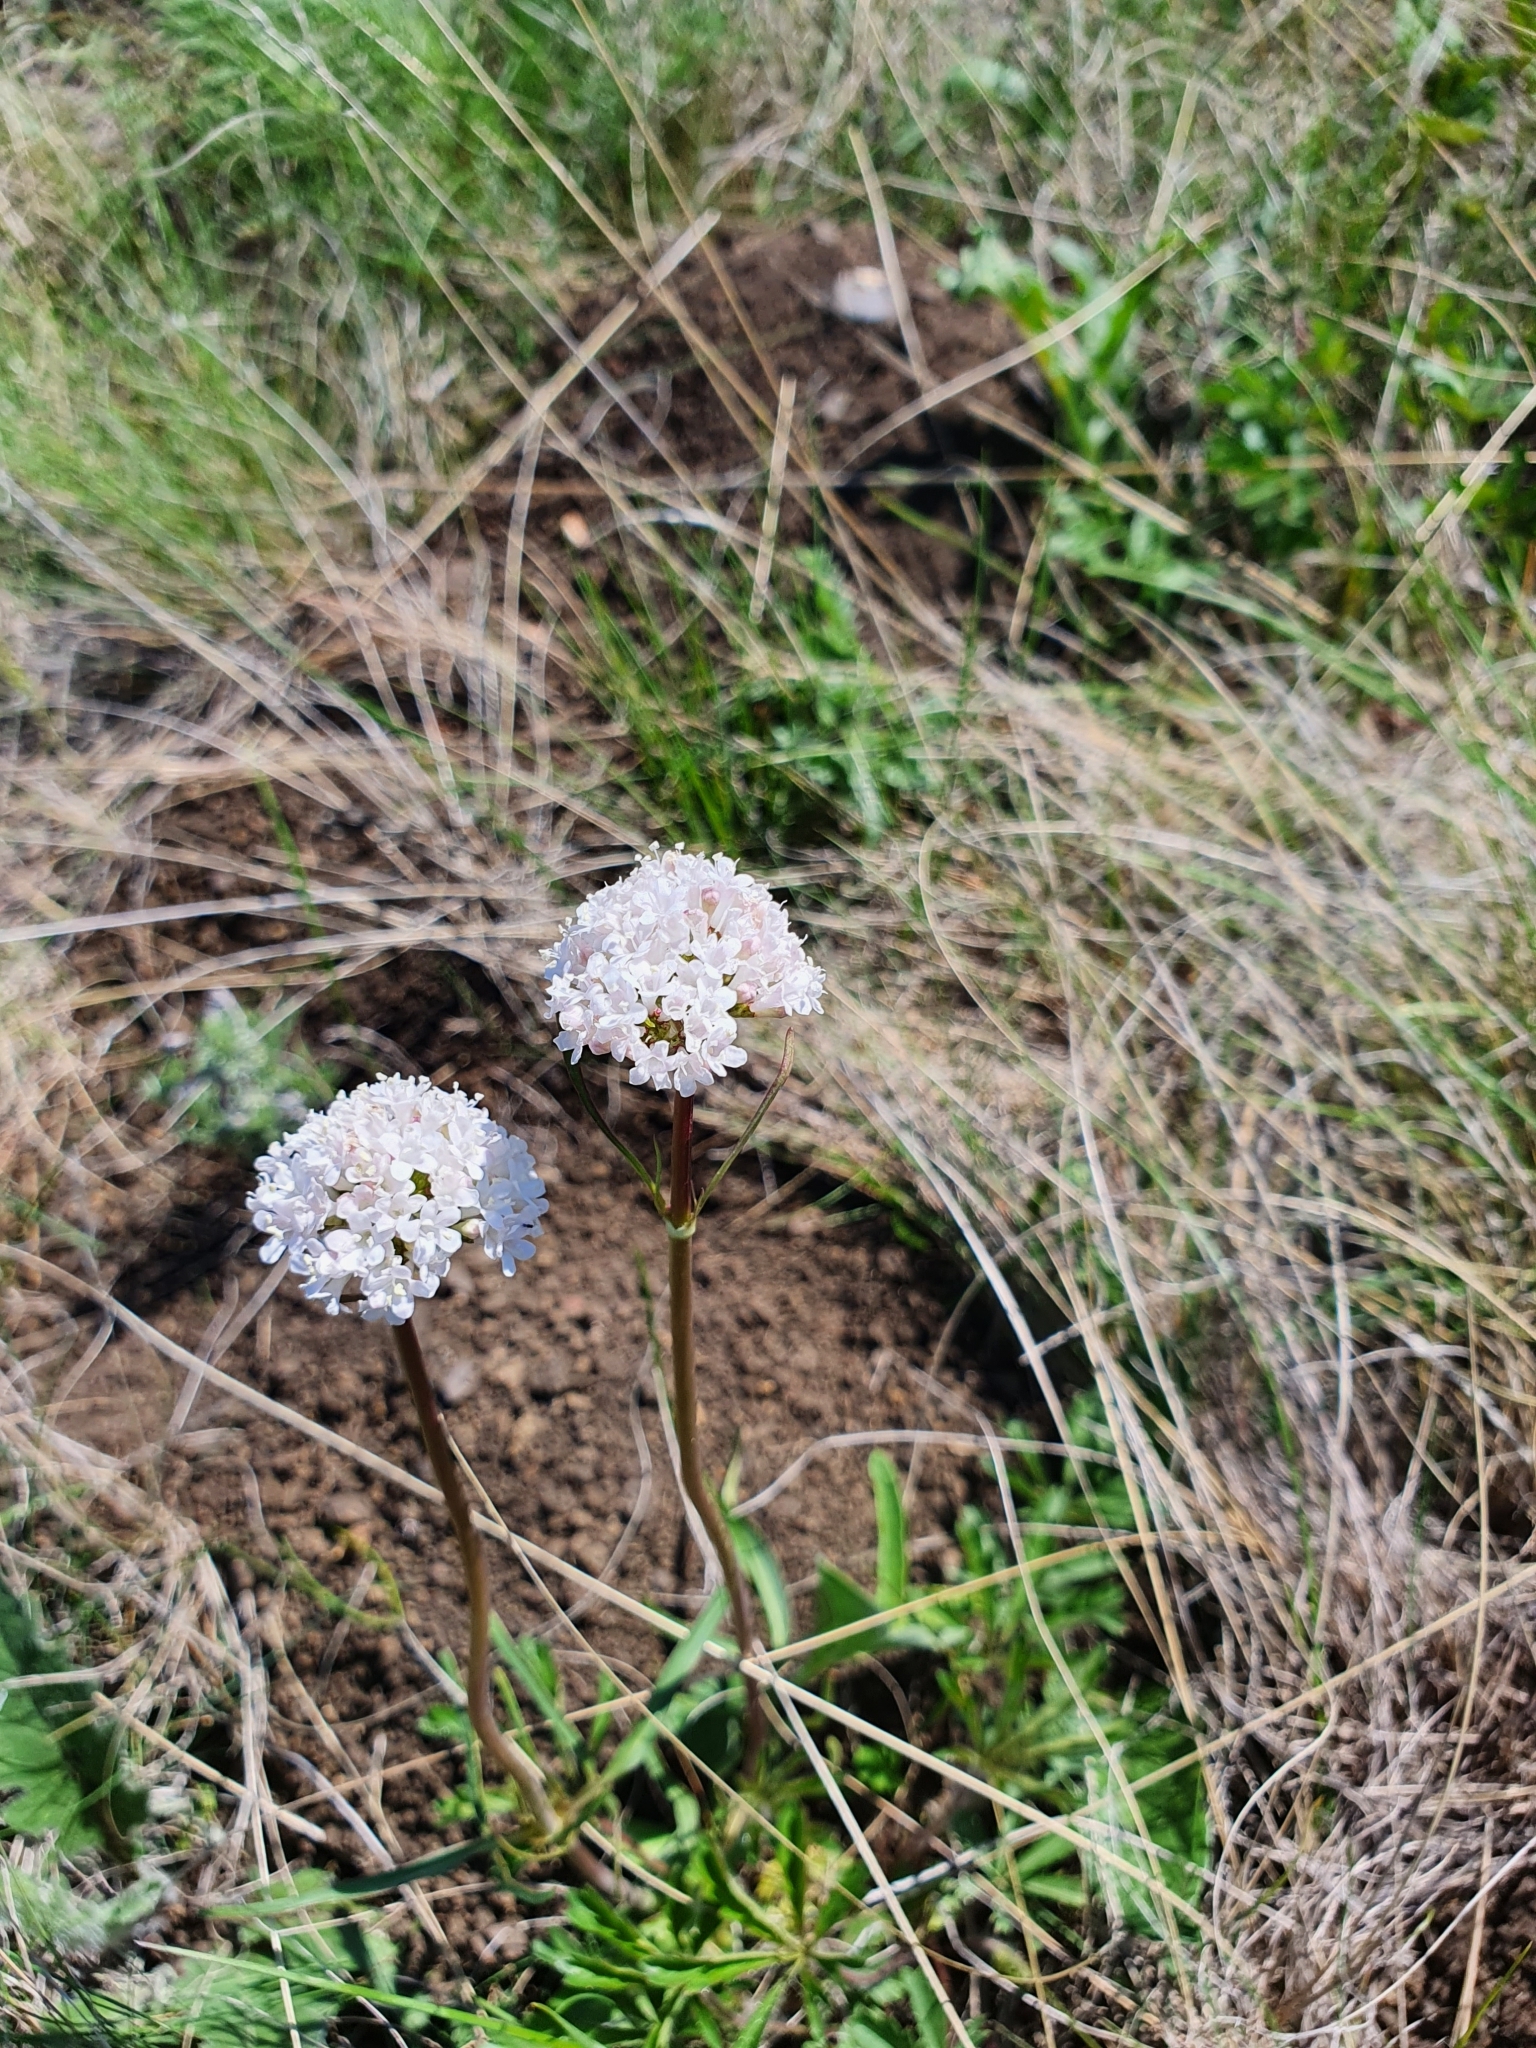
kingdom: Plantae
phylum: Tracheophyta
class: Magnoliopsida
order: Dipsacales
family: Caprifoliaceae
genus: Valeriana
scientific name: Valeriana tuberosa
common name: Tuberous valerian
